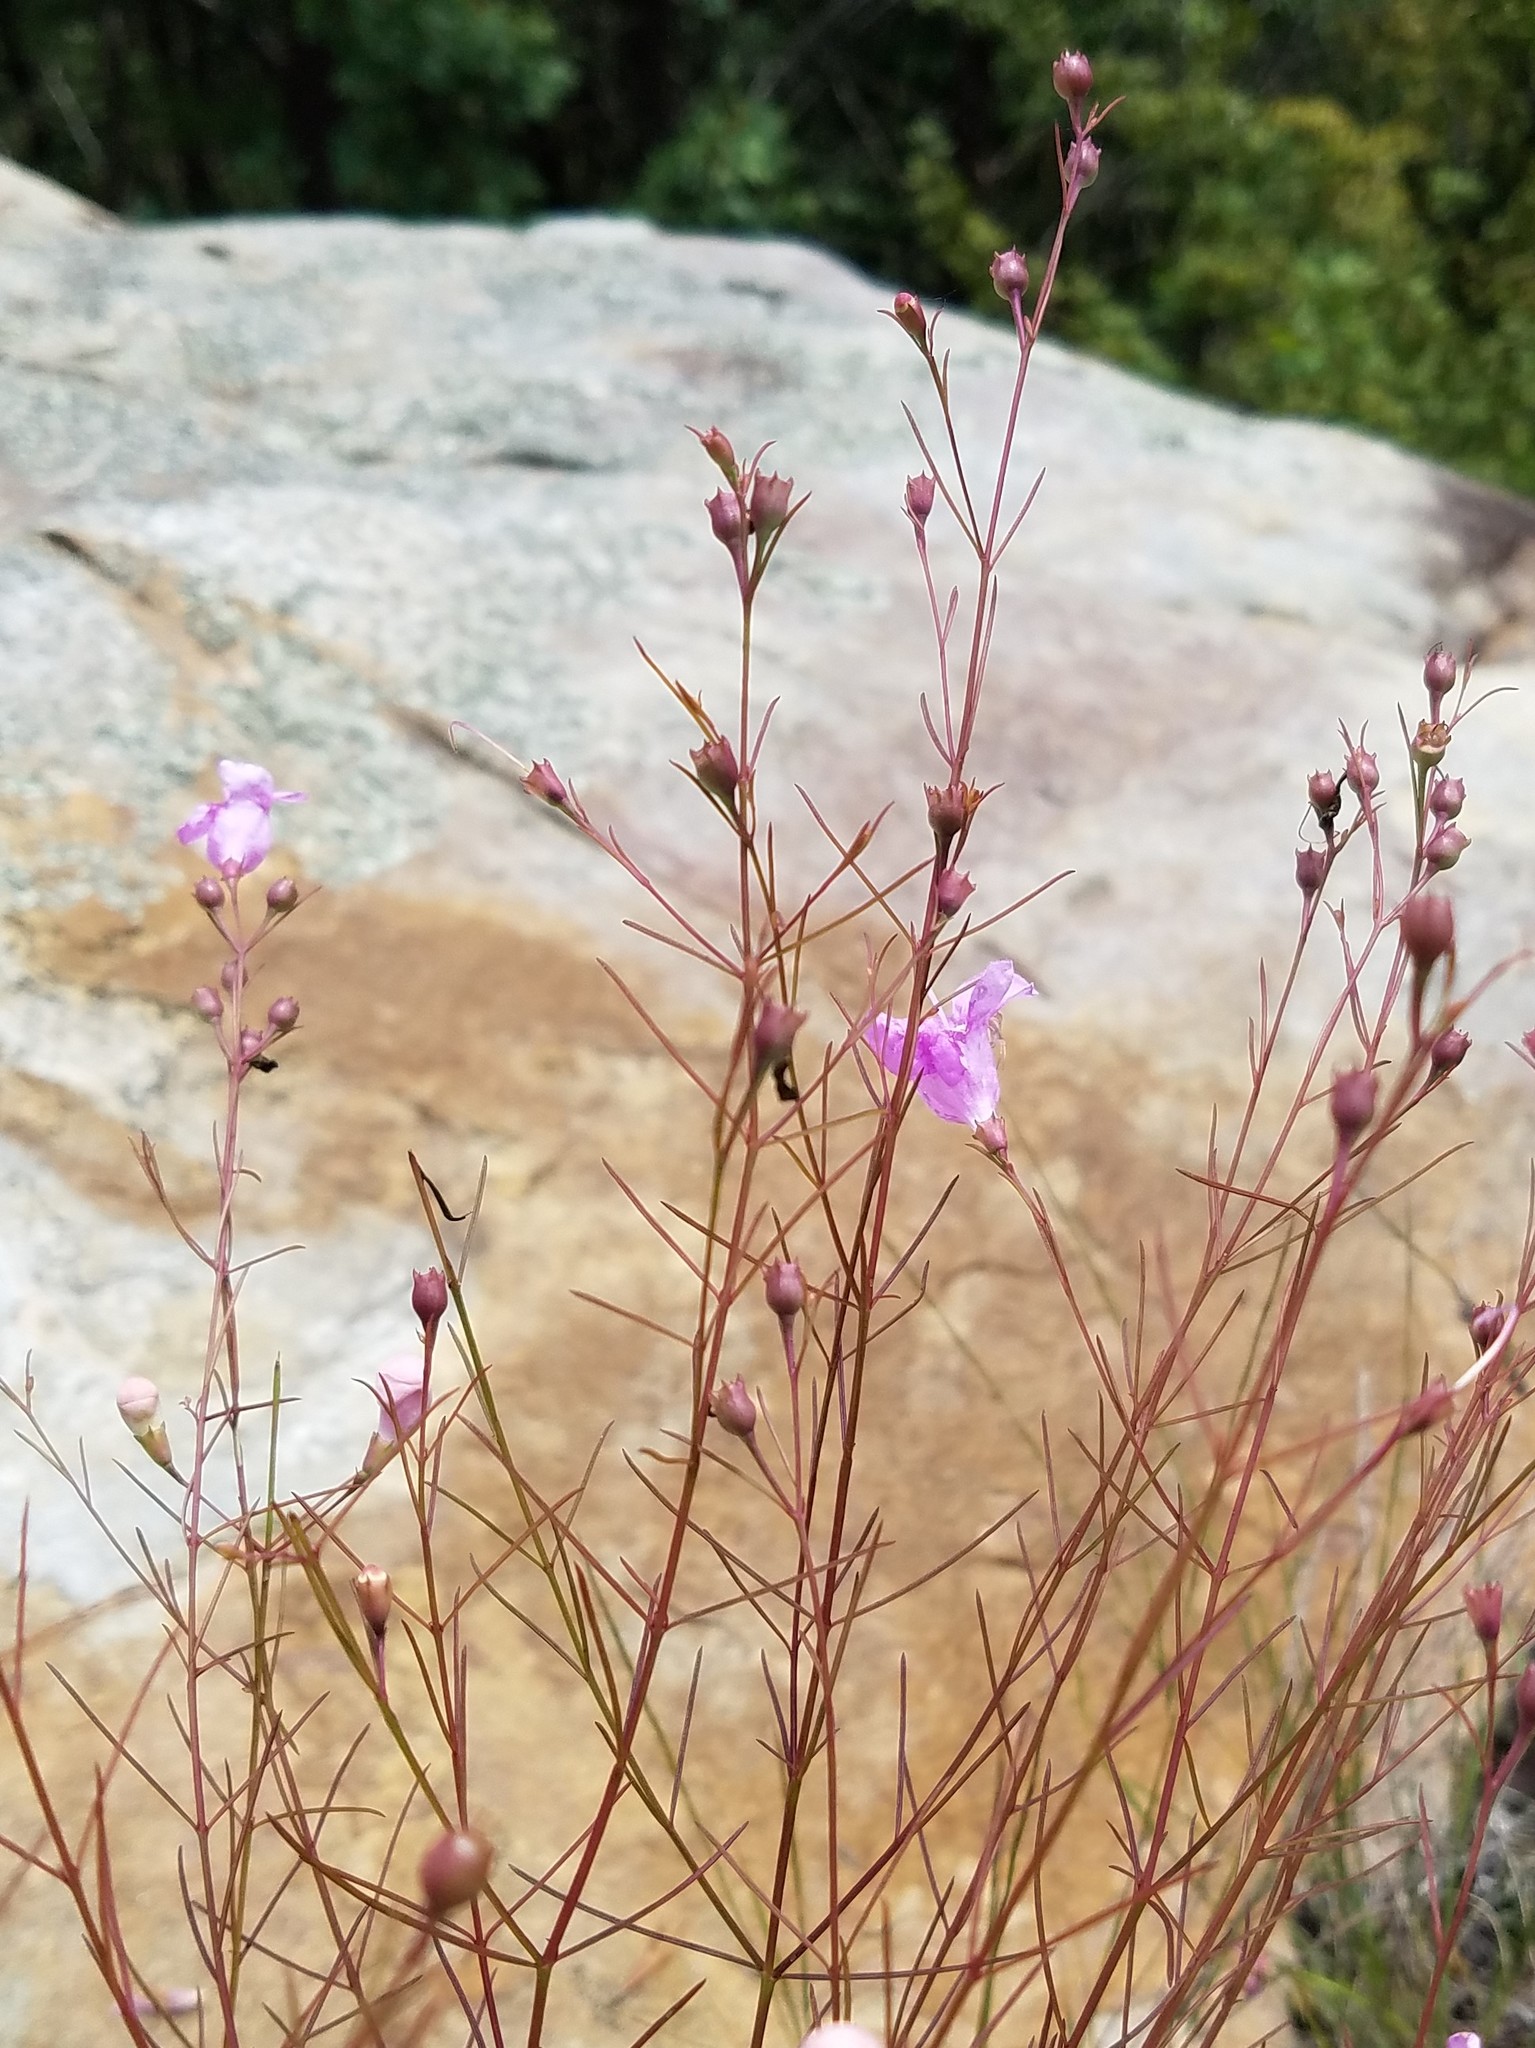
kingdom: Plantae
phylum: Tracheophyta
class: Magnoliopsida
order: Lamiales
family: Orobanchaceae
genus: Agalinis
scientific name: Agalinis plukenetii
